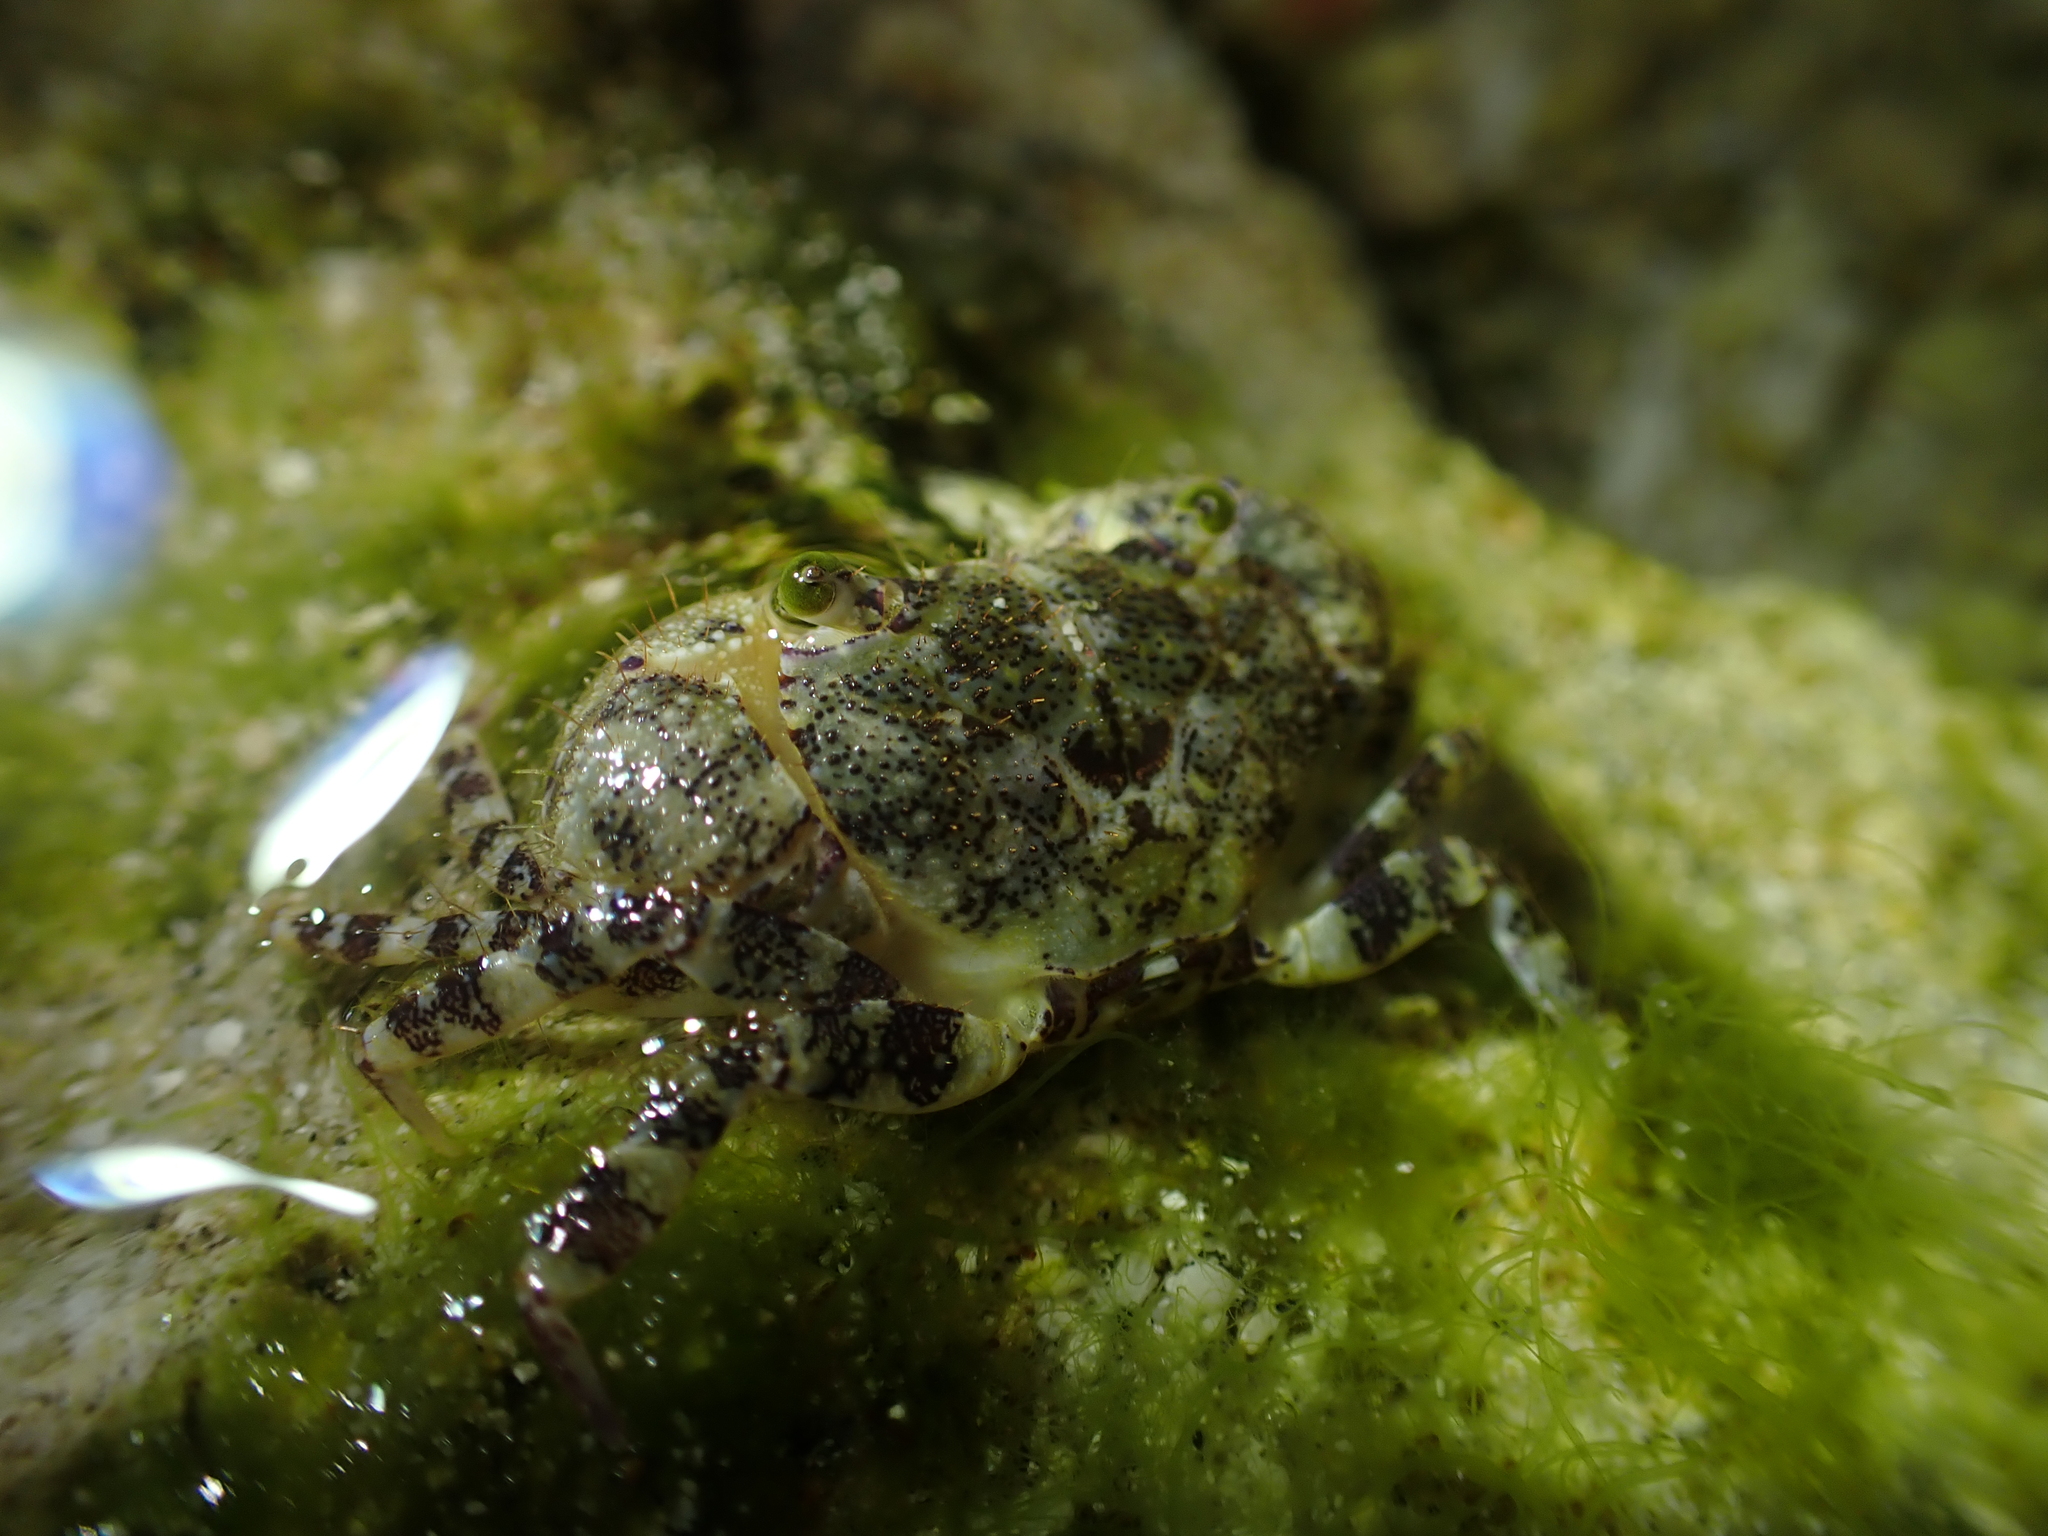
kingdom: Animalia
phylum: Arthropoda
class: Malacostraca
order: Decapoda
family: Eriphiidae
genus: Eriphia
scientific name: Eriphia scabricula
